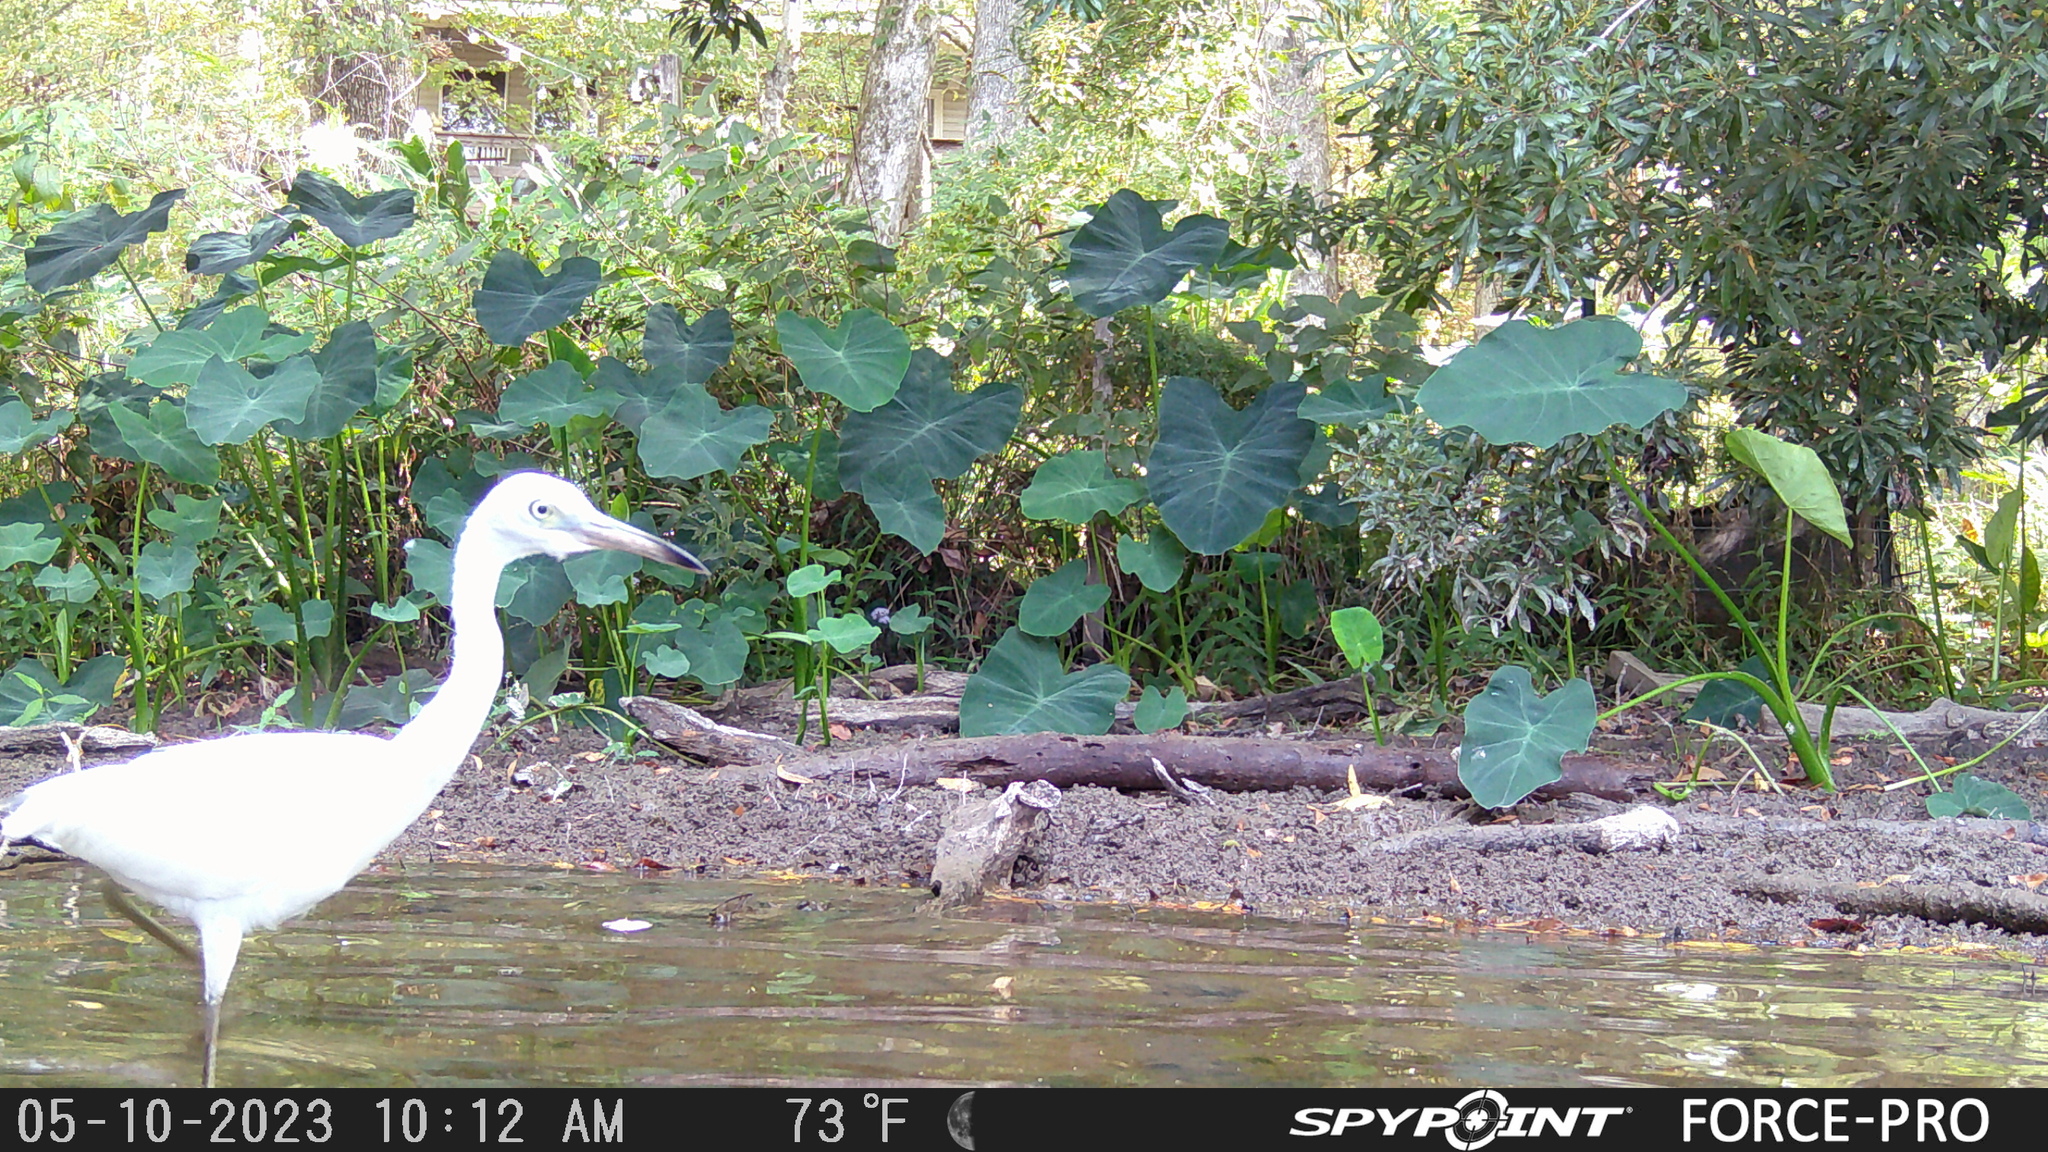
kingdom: Animalia
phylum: Chordata
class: Aves
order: Pelecaniformes
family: Ardeidae
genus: Egretta
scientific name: Egretta caerulea
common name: Little blue heron
